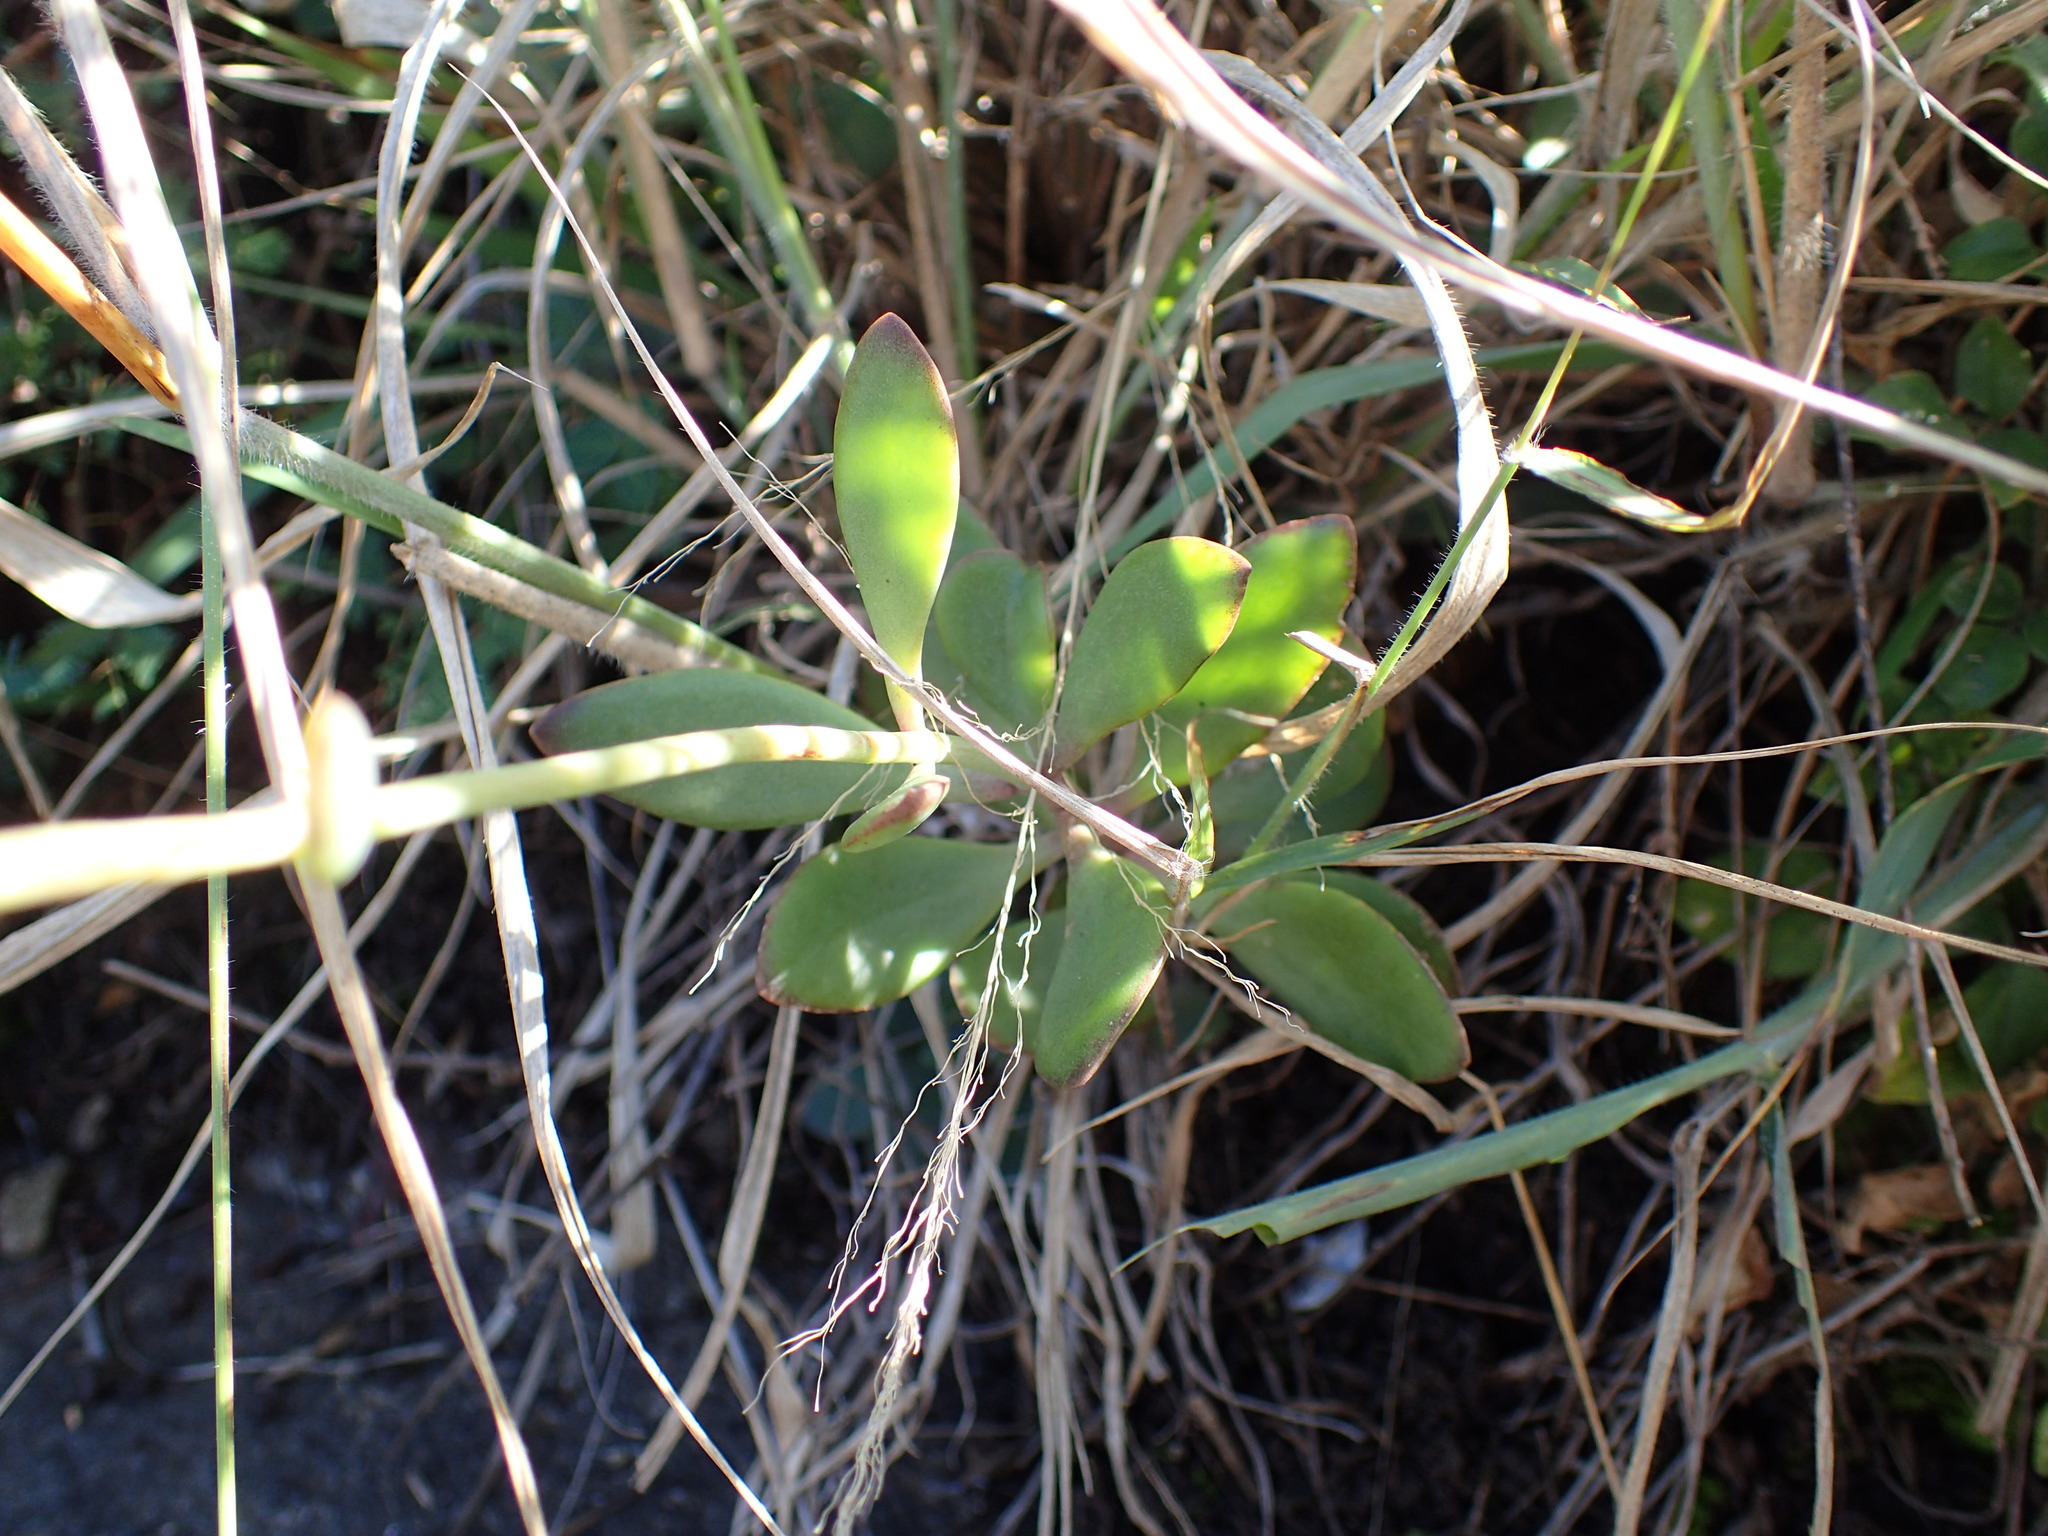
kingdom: Plantae
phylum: Tracheophyta
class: Magnoliopsida
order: Saxifragales
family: Crassulaceae
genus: Kalanchoe
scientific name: Kalanchoe rotundifolia
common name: Common kalanchoe
